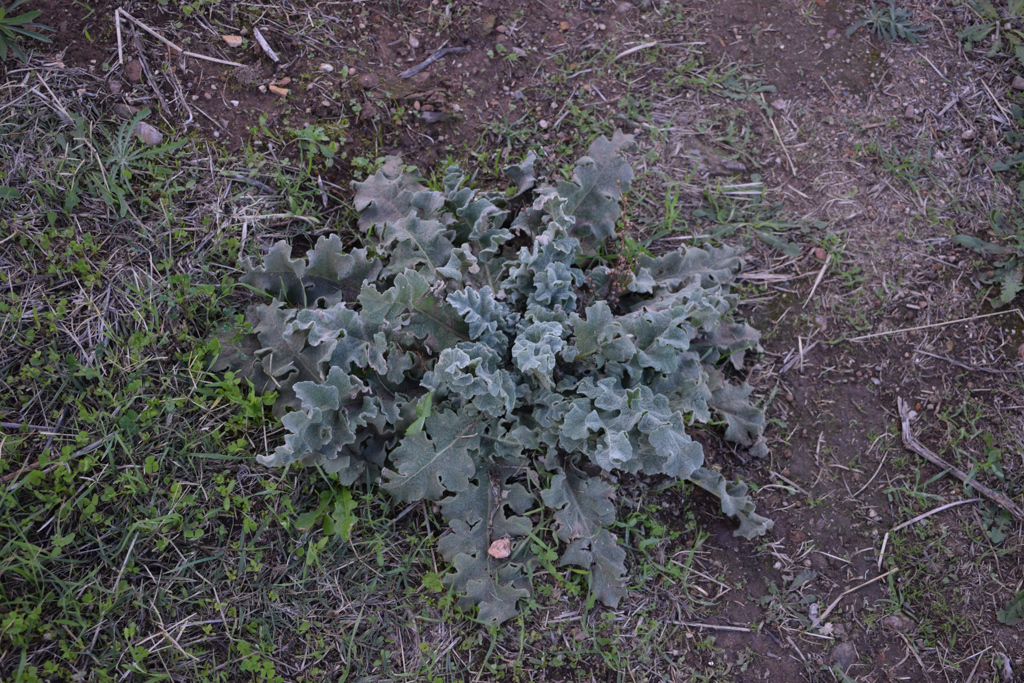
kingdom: Plantae
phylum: Tracheophyta
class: Magnoliopsida
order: Lamiales
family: Scrophulariaceae
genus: Verbascum
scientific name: Verbascum sinuatum
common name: Wavyleaf mullein
